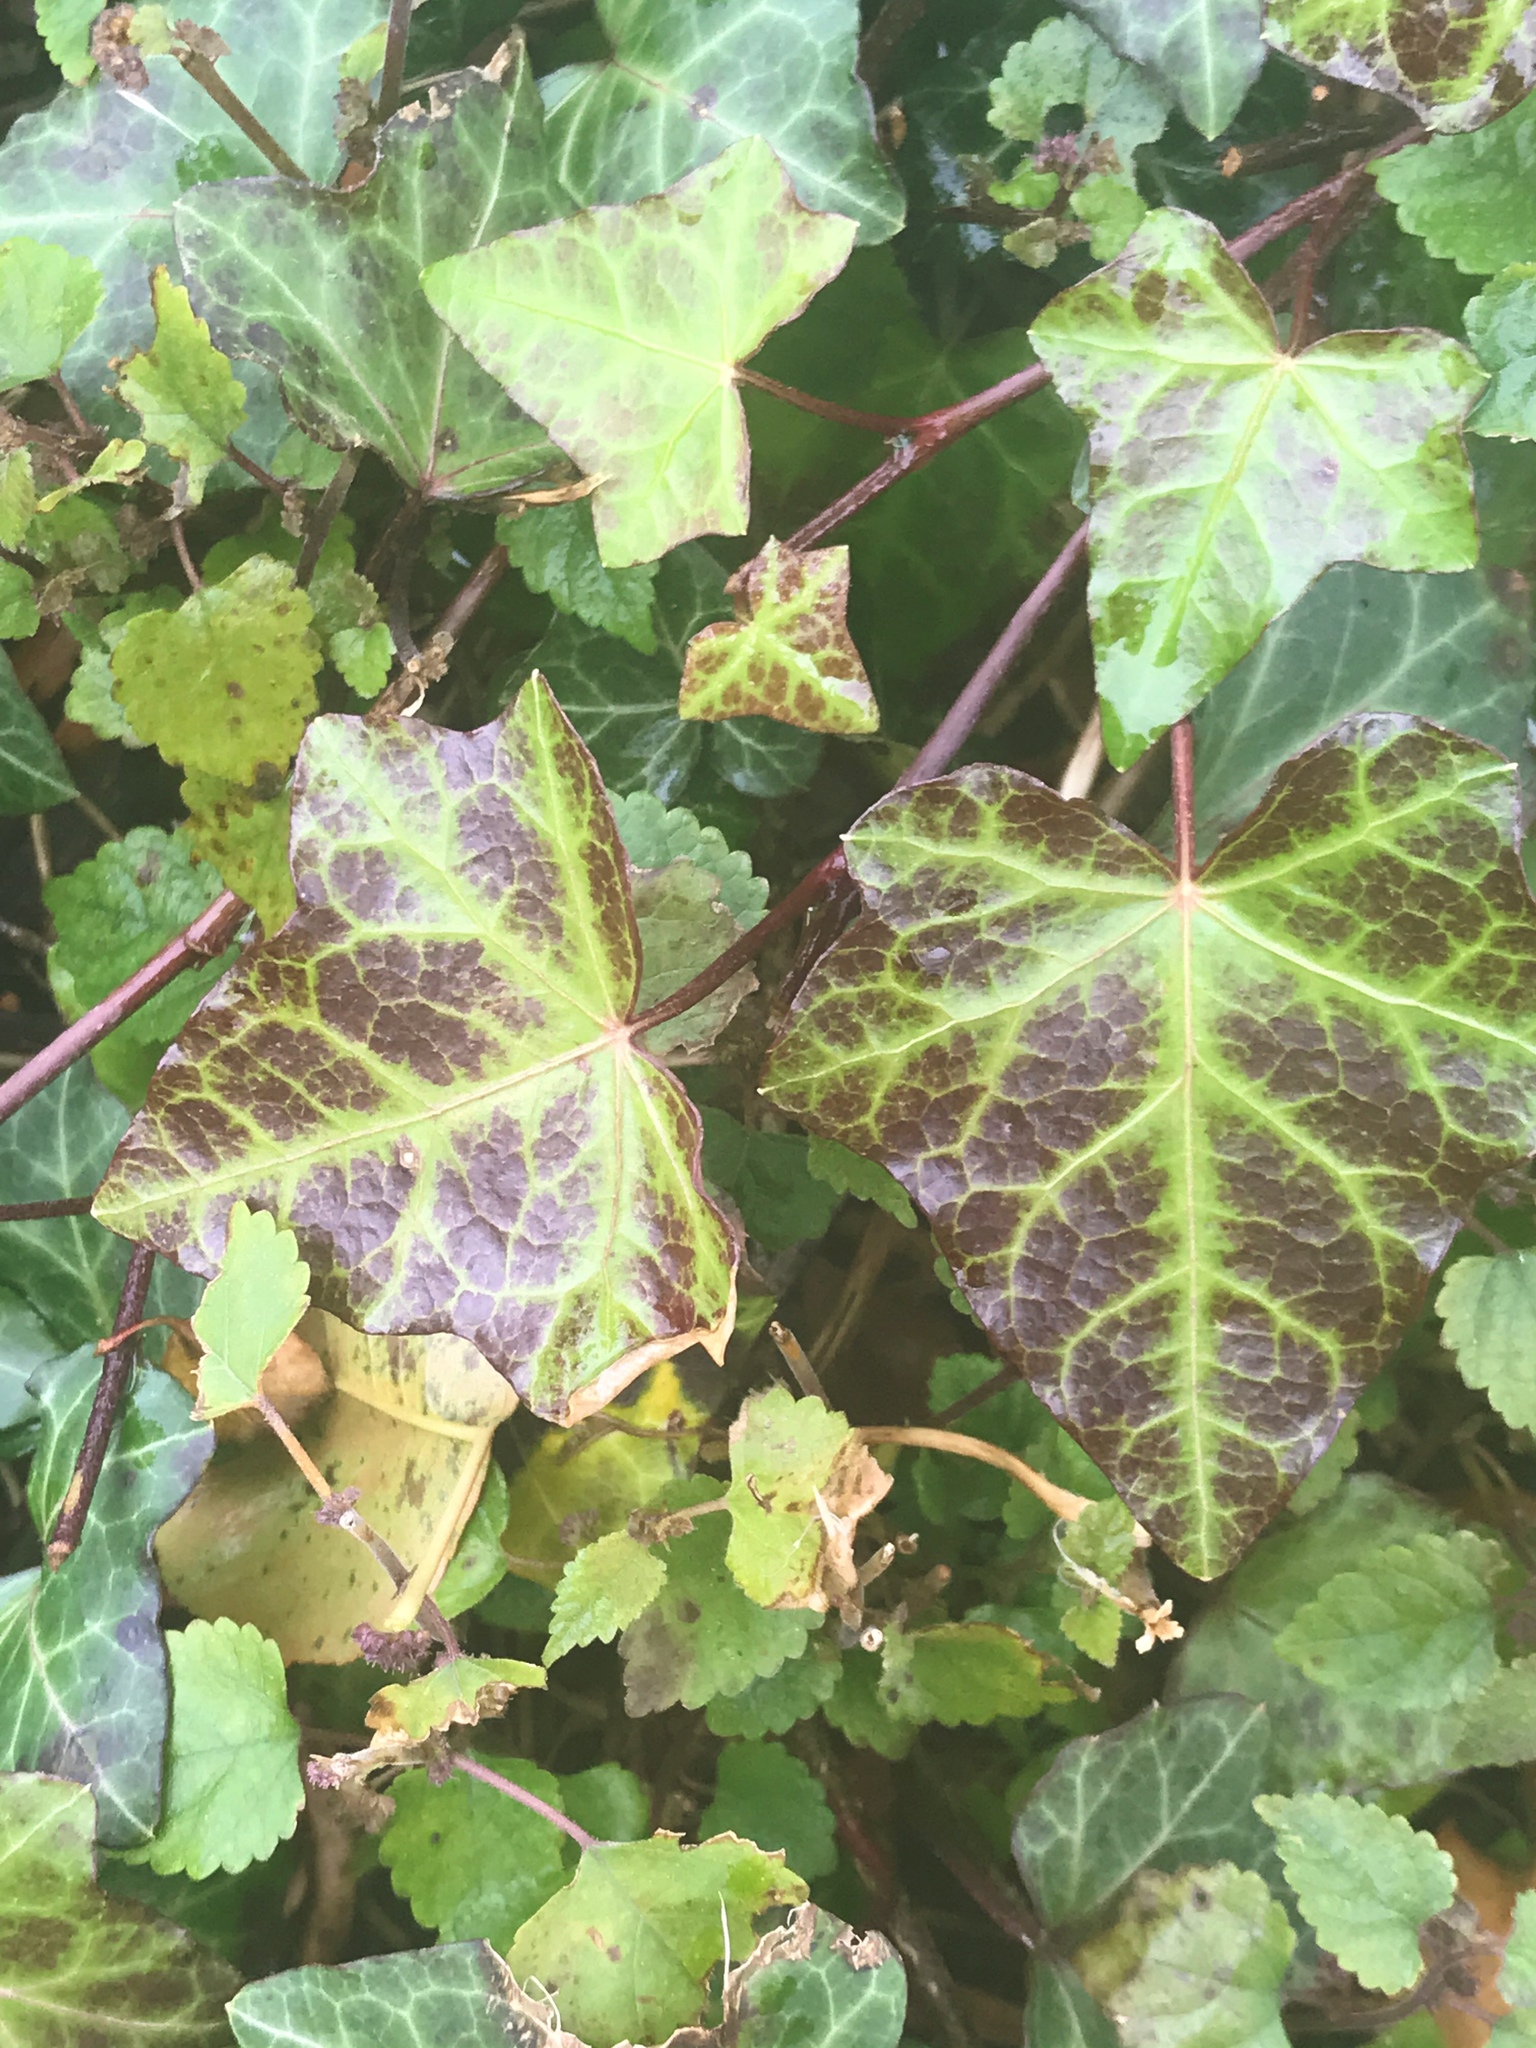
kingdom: Plantae
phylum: Tracheophyta
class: Magnoliopsida
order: Apiales
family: Araliaceae
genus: Hedera
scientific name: Hedera helix
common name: Ivy
